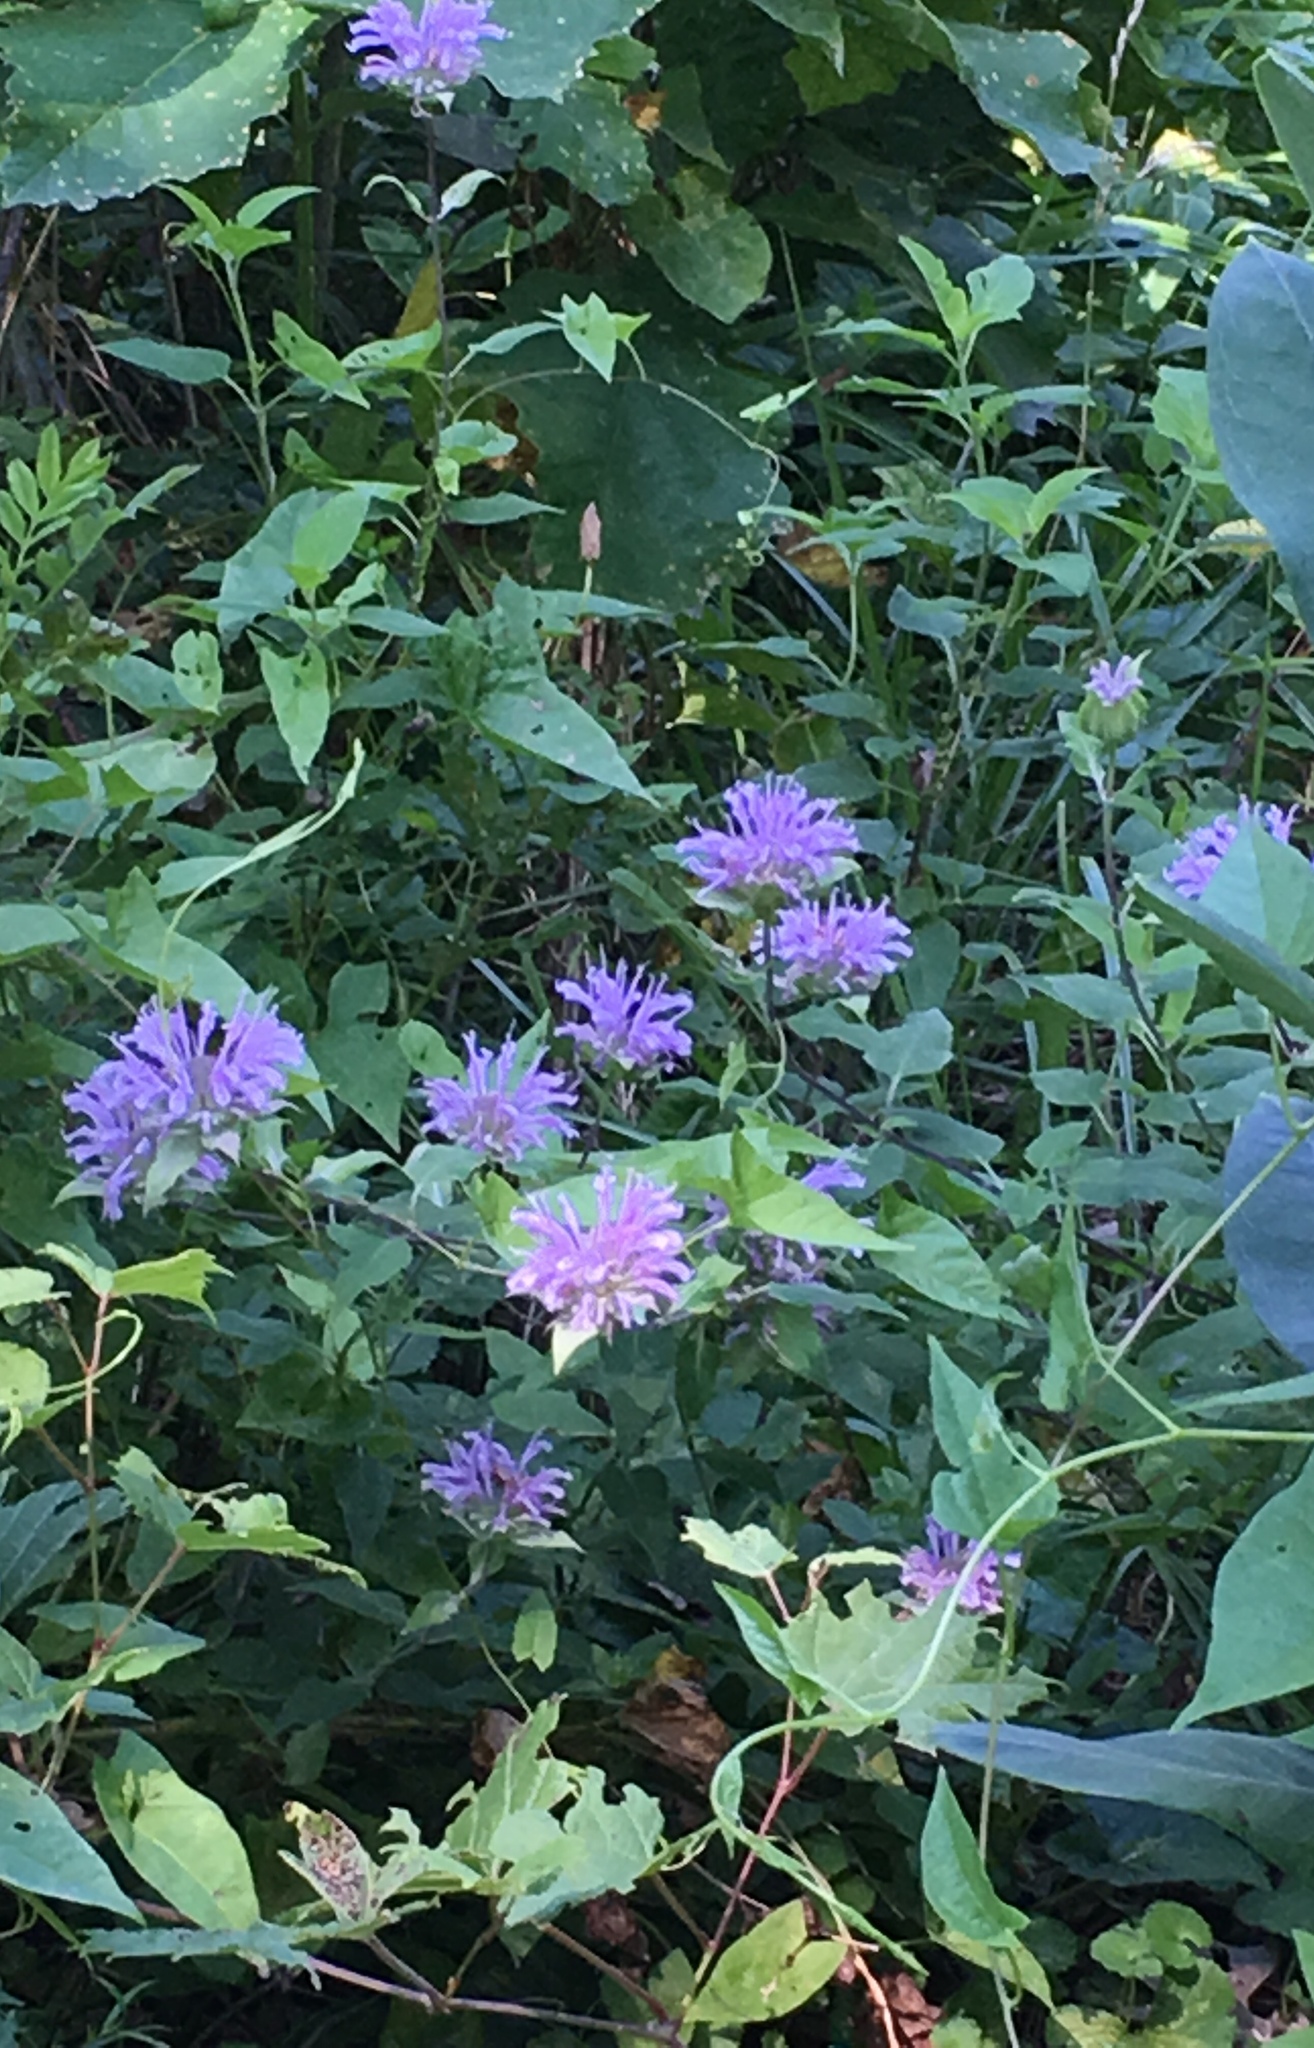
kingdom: Plantae
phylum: Tracheophyta
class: Magnoliopsida
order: Lamiales
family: Lamiaceae
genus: Monarda
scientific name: Monarda fistulosa
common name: Purple beebalm
